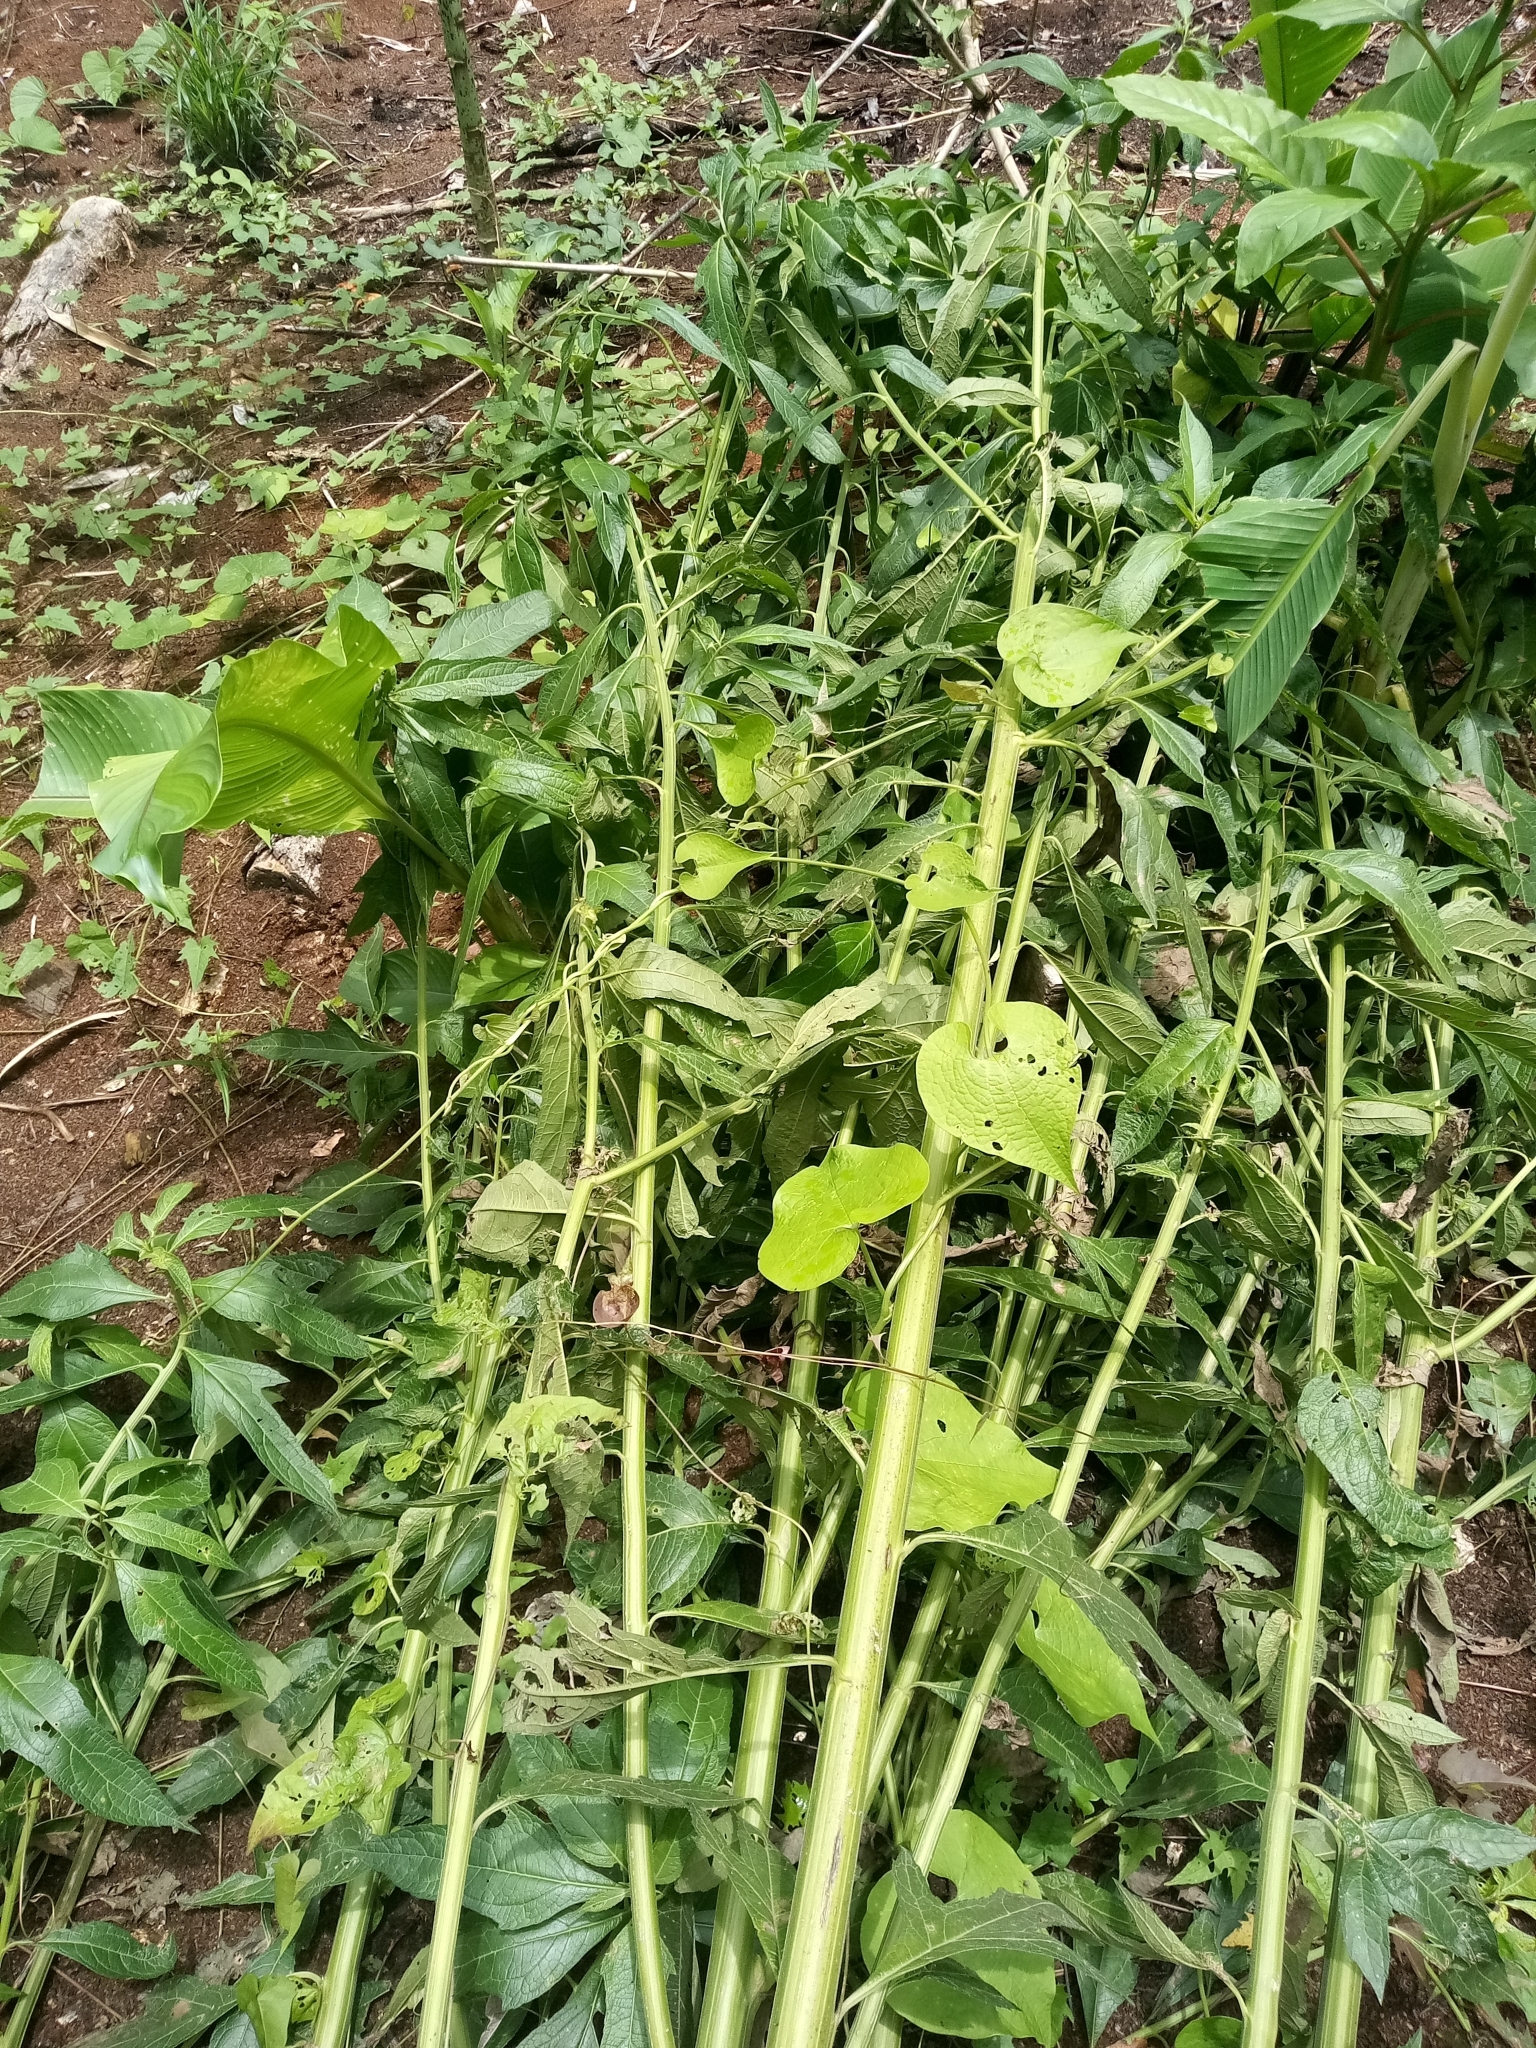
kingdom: Plantae
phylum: Tracheophyta
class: Magnoliopsida
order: Asterales
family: Asteraceae
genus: Neurolaena
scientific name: Neurolaena lobata
